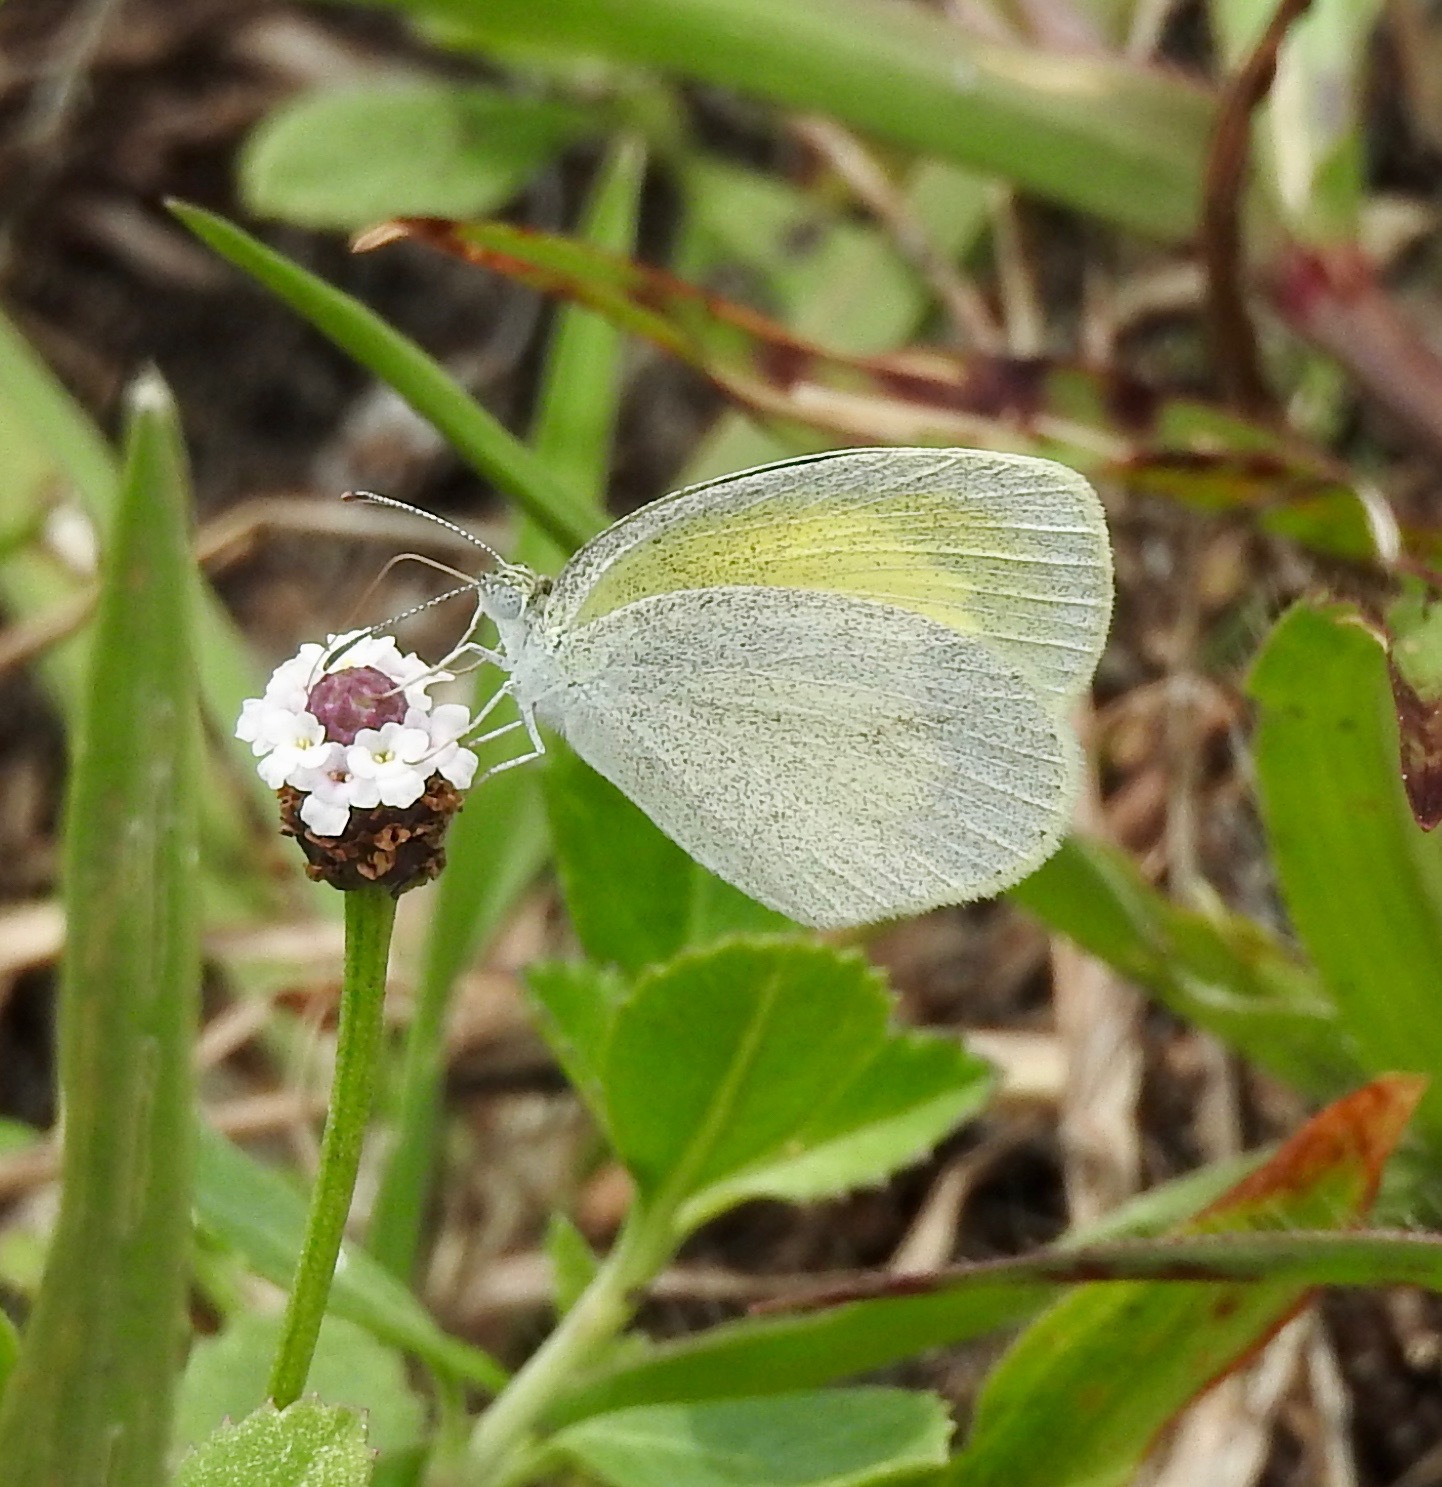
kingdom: Animalia
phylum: Arthropoda
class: Insecta
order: Lepidoptera
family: Pieridae
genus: Eurema
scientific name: Eurema daira
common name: Barred sulphur
